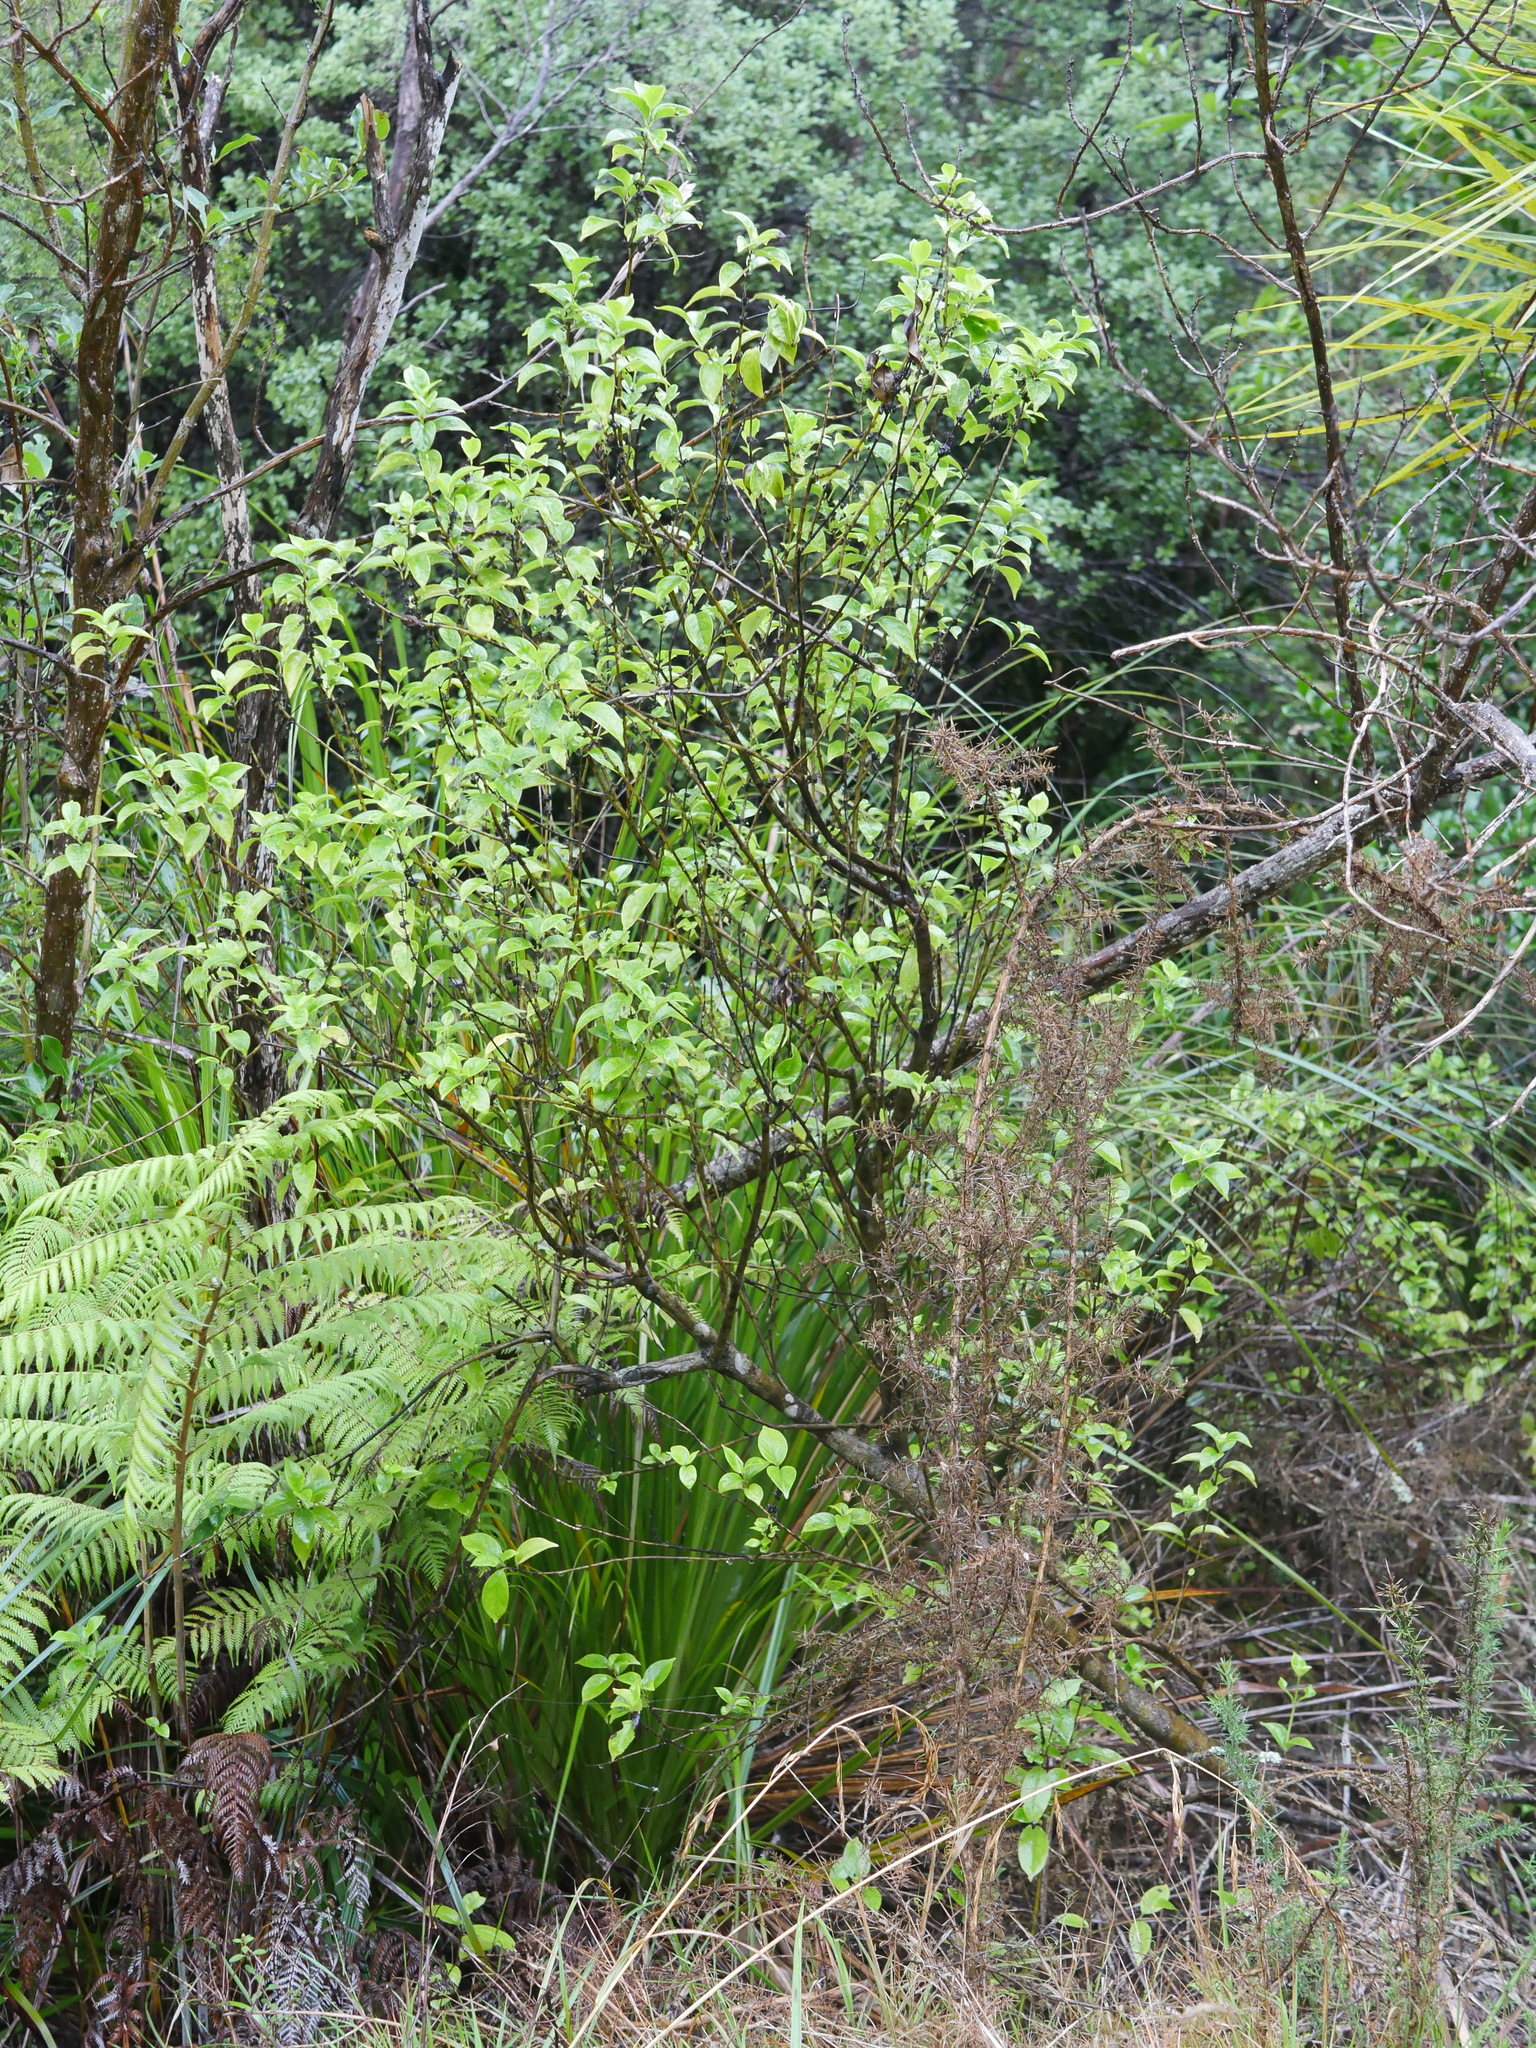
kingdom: Plantae
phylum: Tracheophyta
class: Magnoliopsida
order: Gentianales
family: Loganiaceae
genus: Geniostoma
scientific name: Geniostoma ligustrifolium
